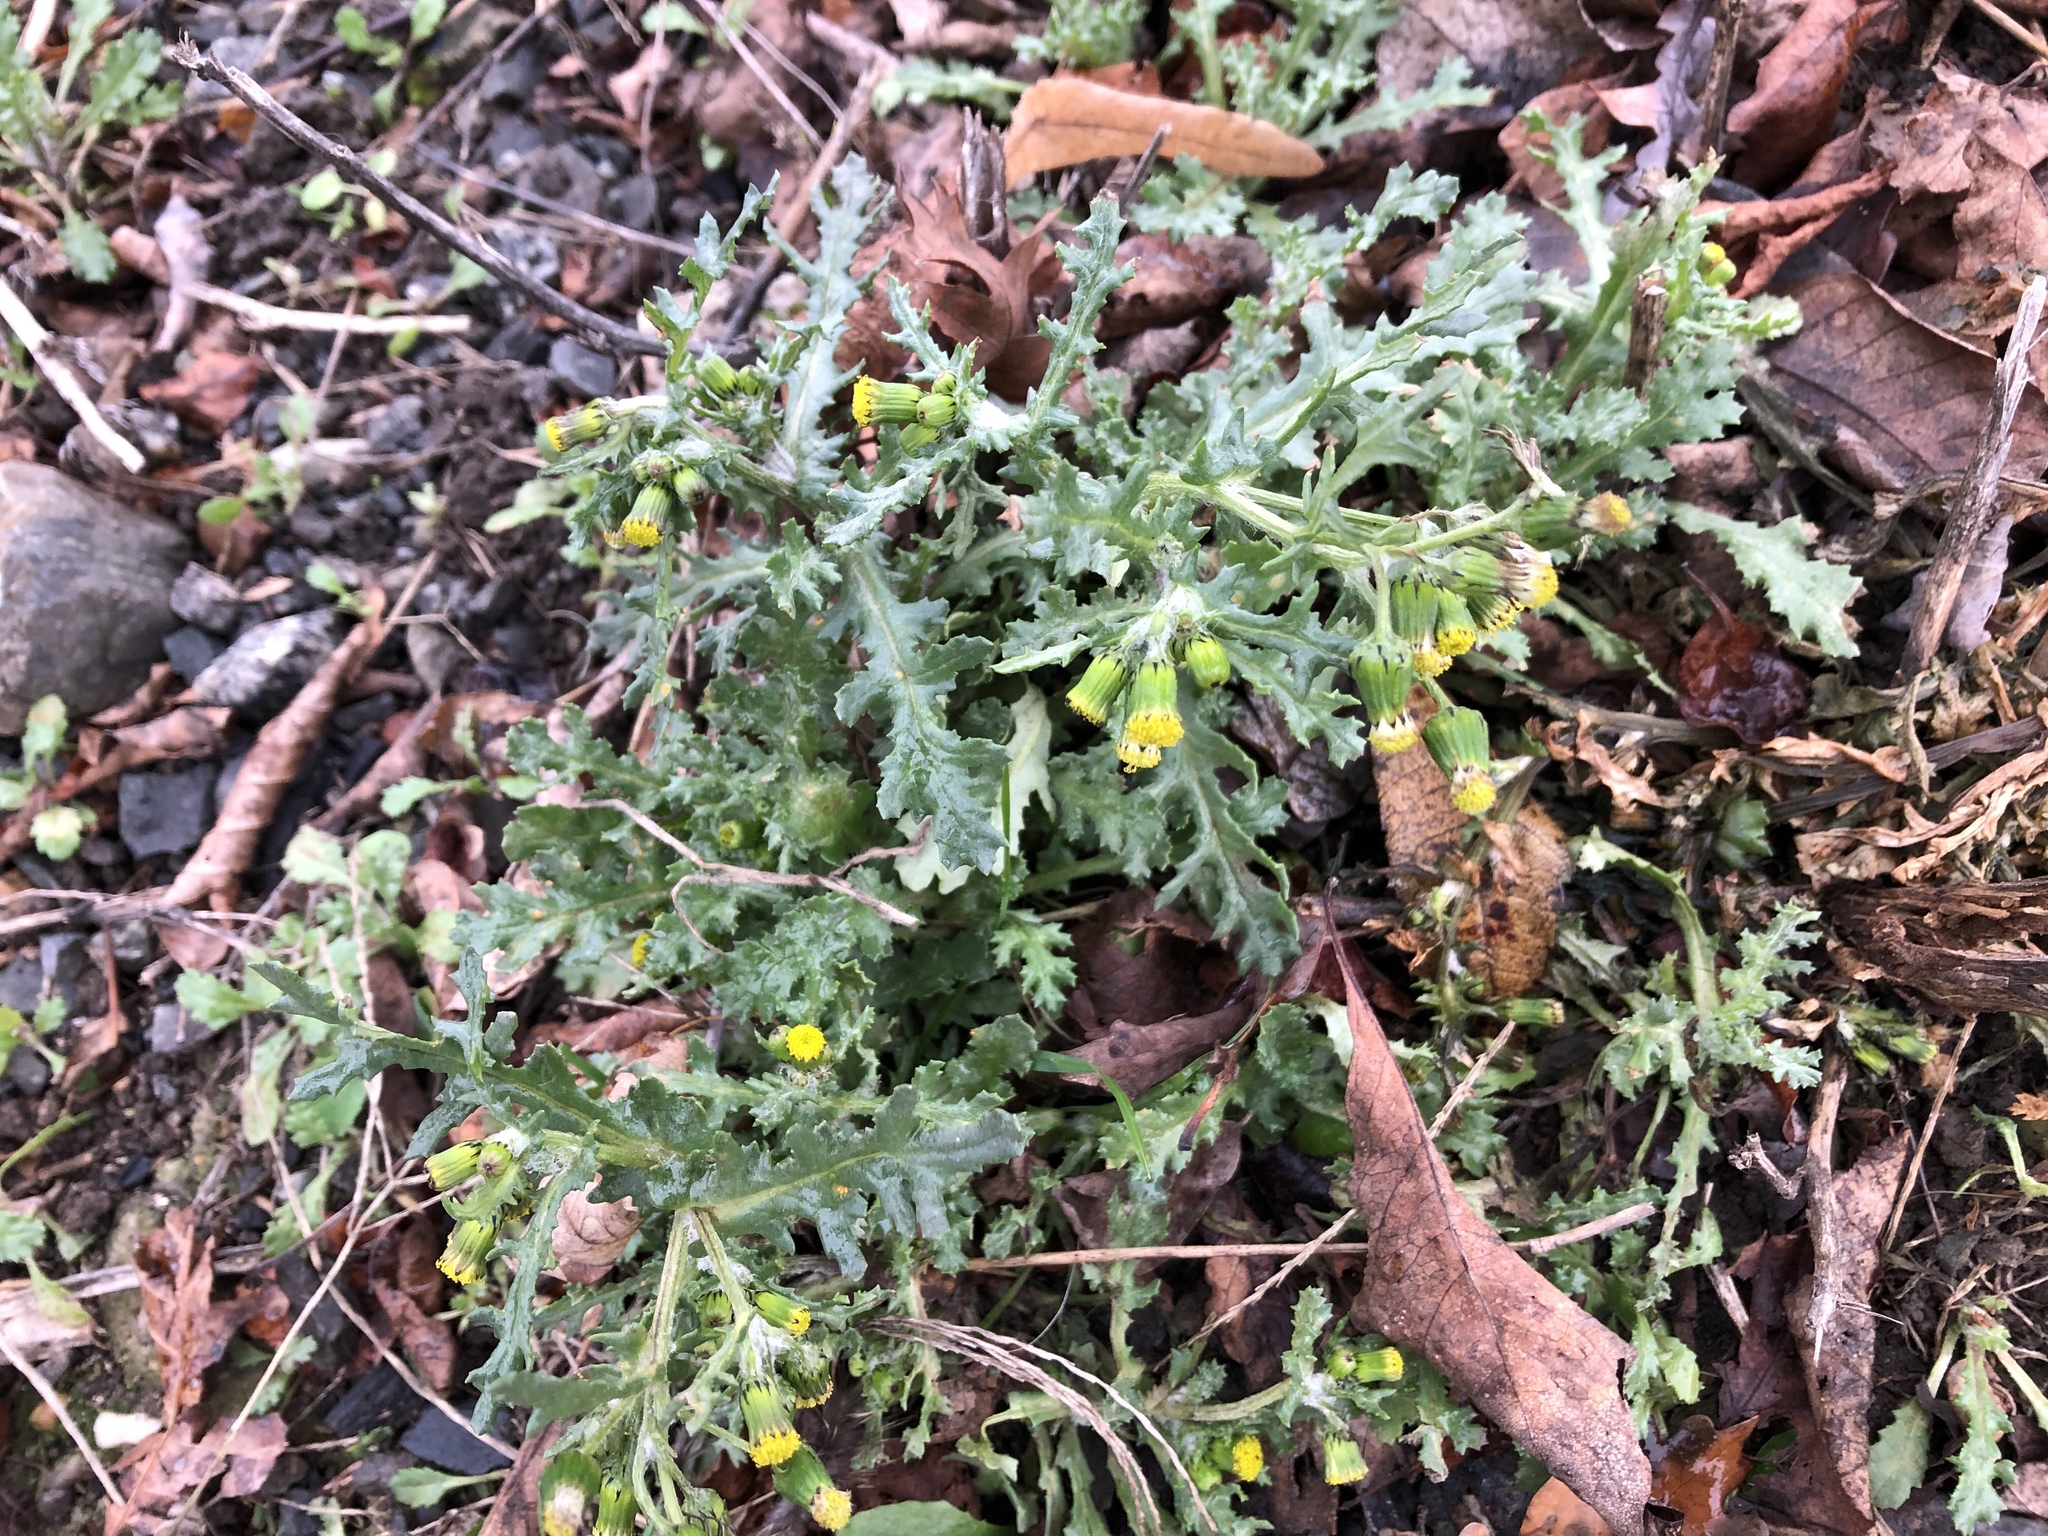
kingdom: Plantae
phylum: Tracheophyta
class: Magnoliopsida
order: Asterales
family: Asteraceae
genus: Senecio
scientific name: Senecio vulgaris
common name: Old-man-in-the-spring
